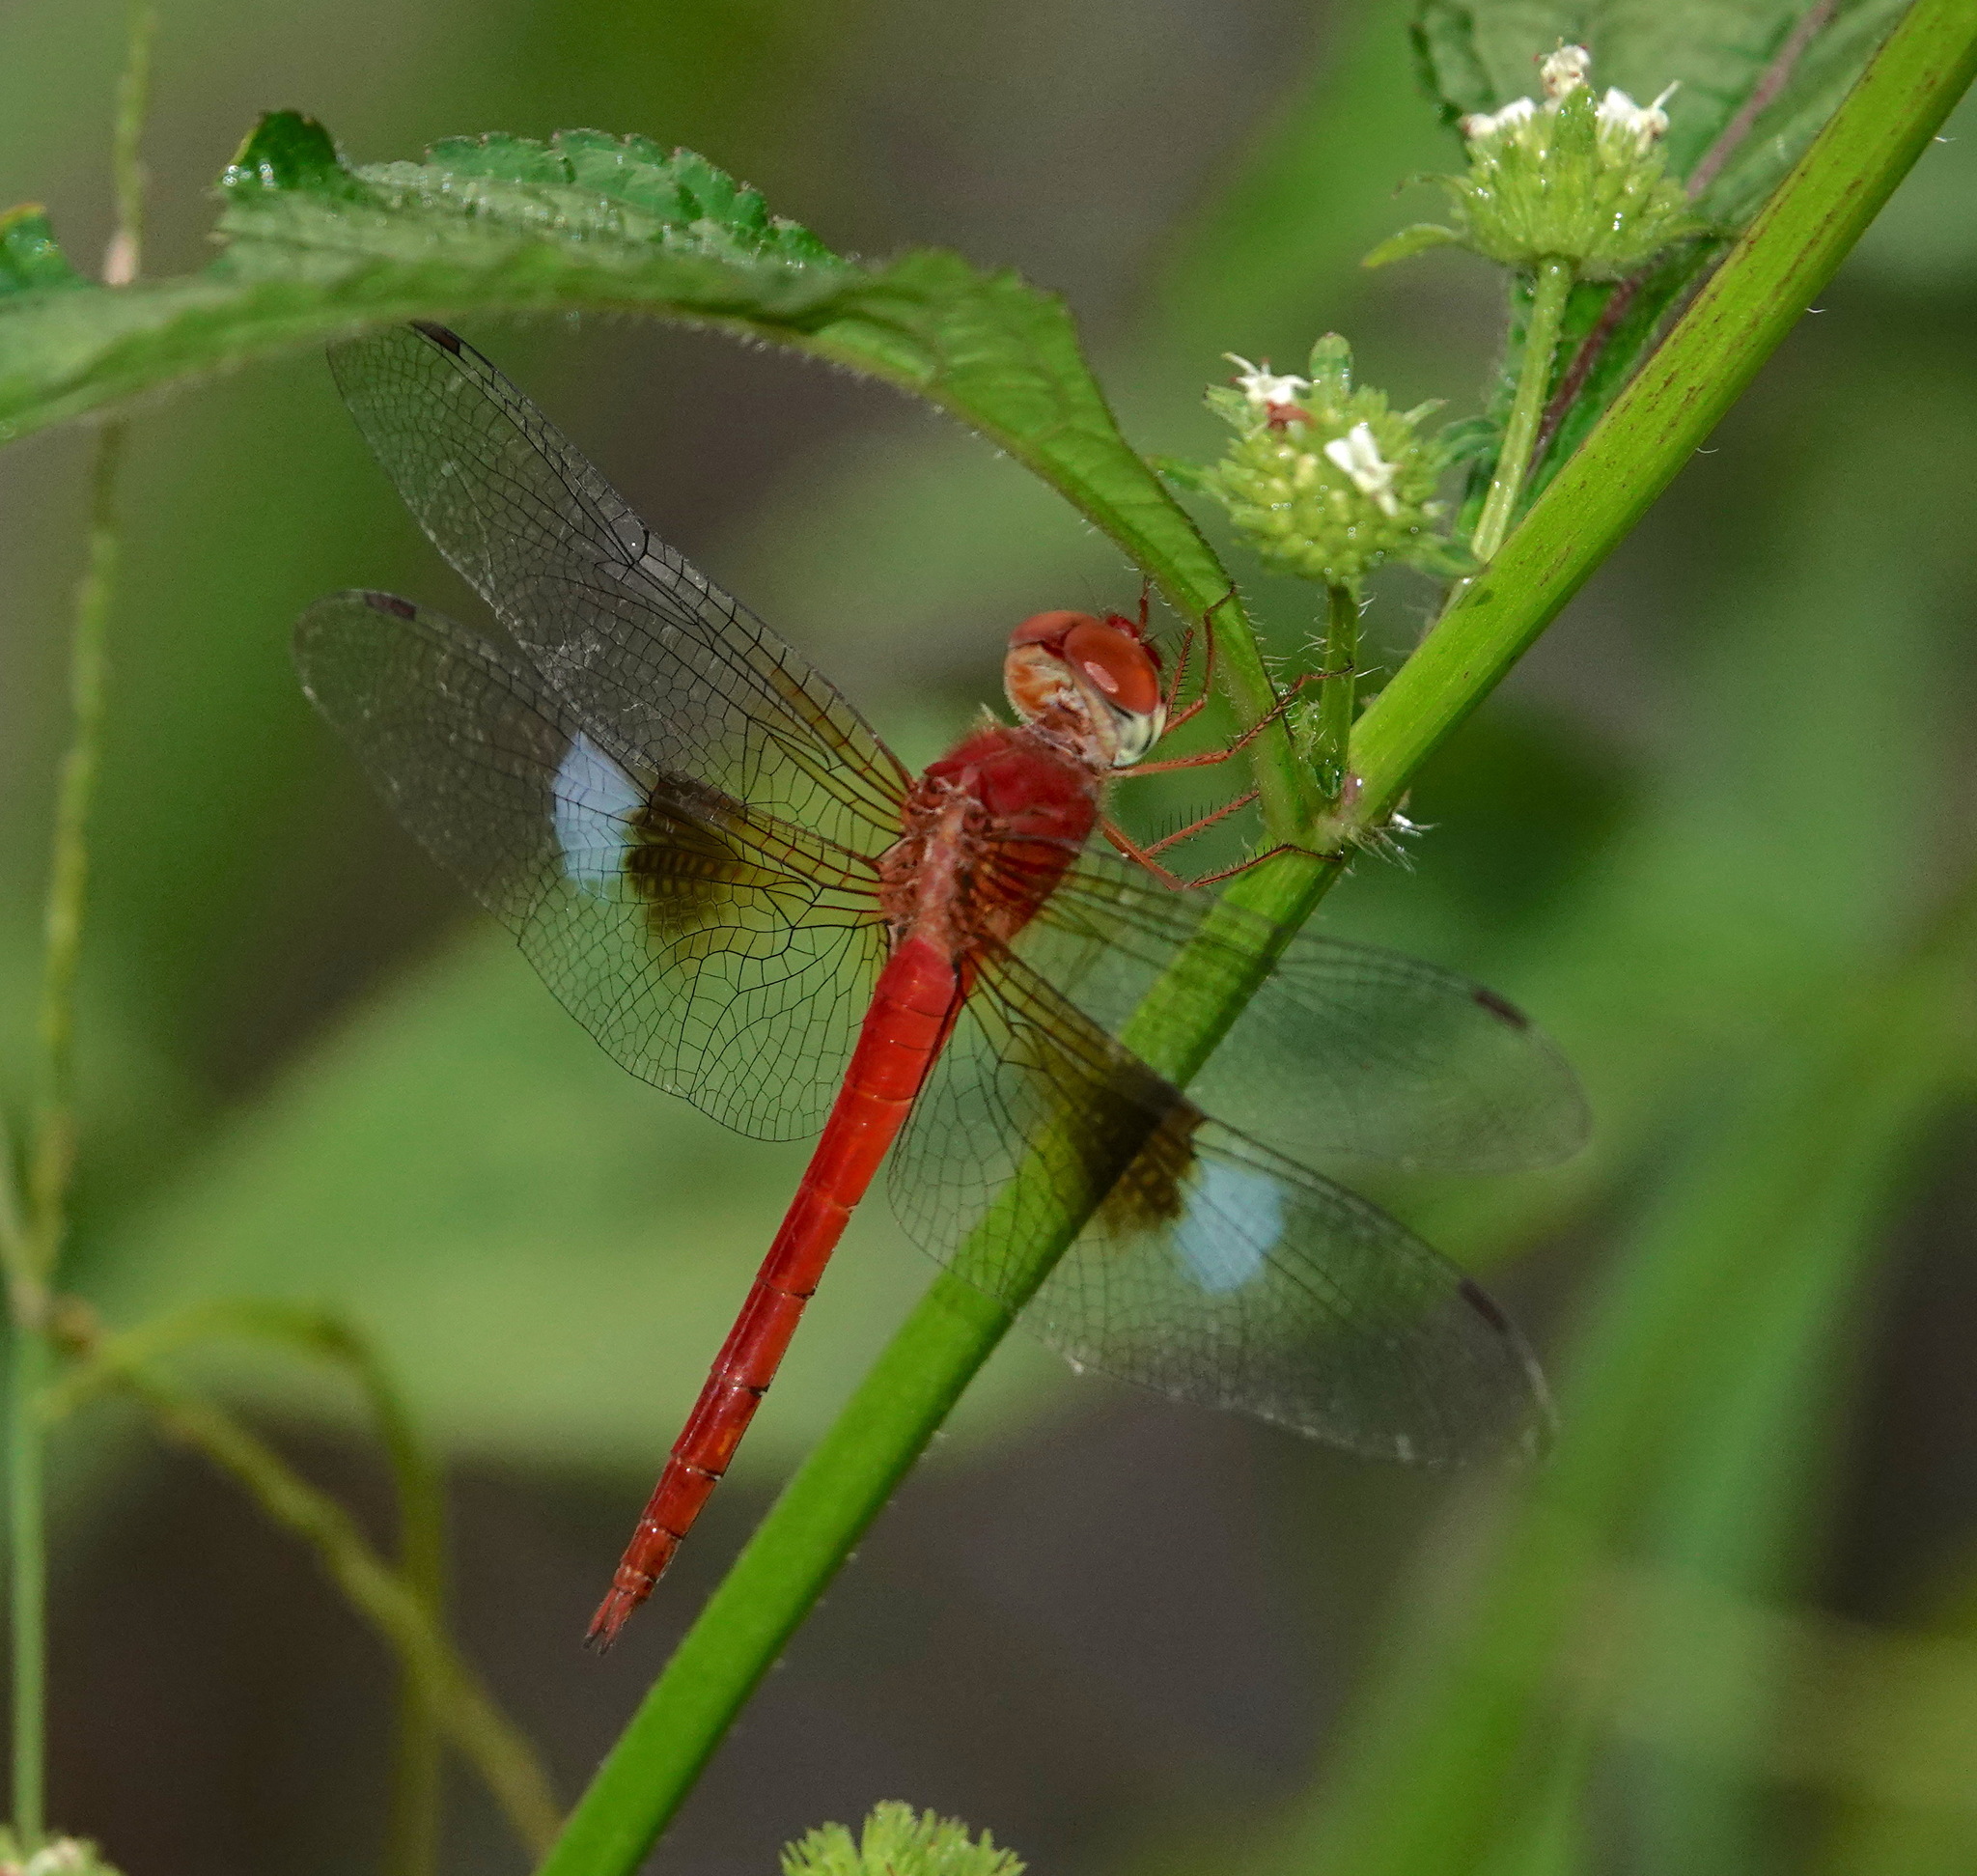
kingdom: Animalia
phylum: Arthropoda
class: Insecta
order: Odonata
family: Libellulidae
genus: Tholymis
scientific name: Tholymis tillarga
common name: Coral-tailed cloud wing
